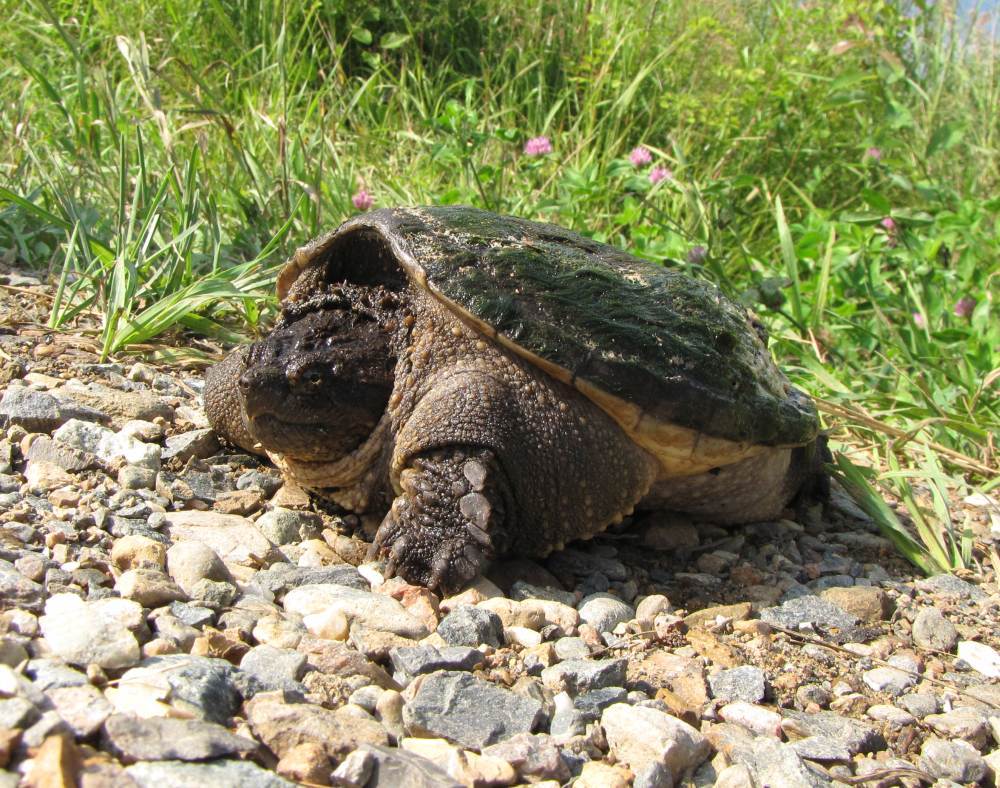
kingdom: Animalia
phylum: Chordata
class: Testudines
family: Chelydridae
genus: Chelydra
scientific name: Chelydra serpentina
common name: Common snapping turtle
